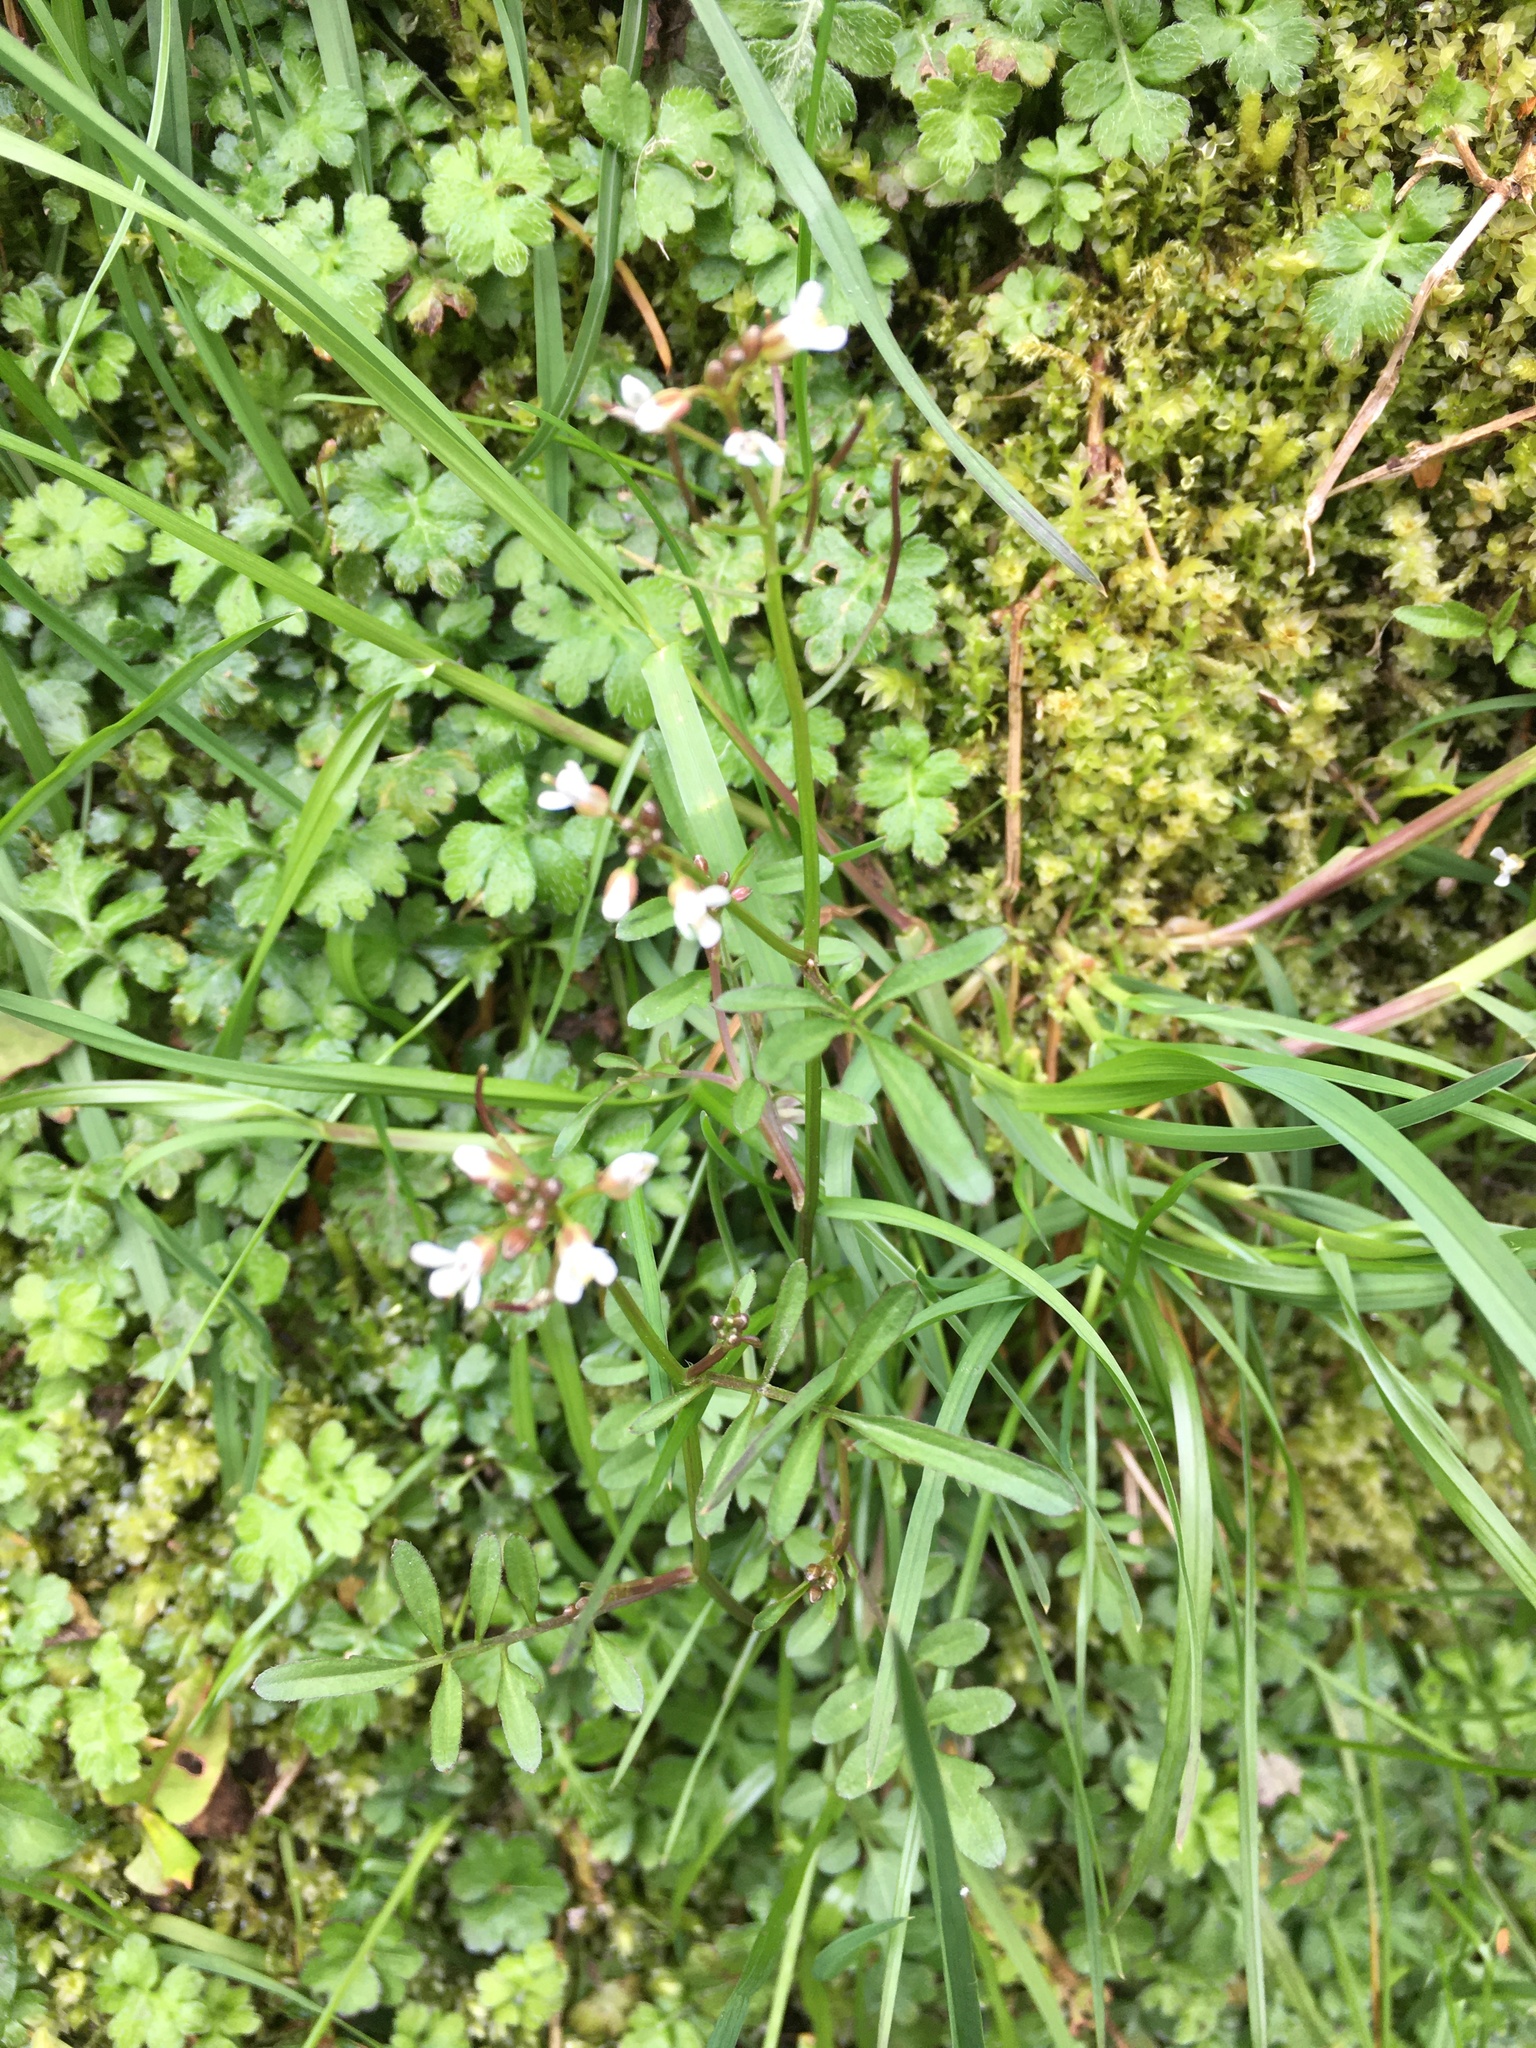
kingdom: Plantae
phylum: Tracheophyta
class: Magnoliopsida
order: Brassicales
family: Brassicaceae
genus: Cardamine
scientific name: Cardamine flexuosa
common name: Woodland bittercress
